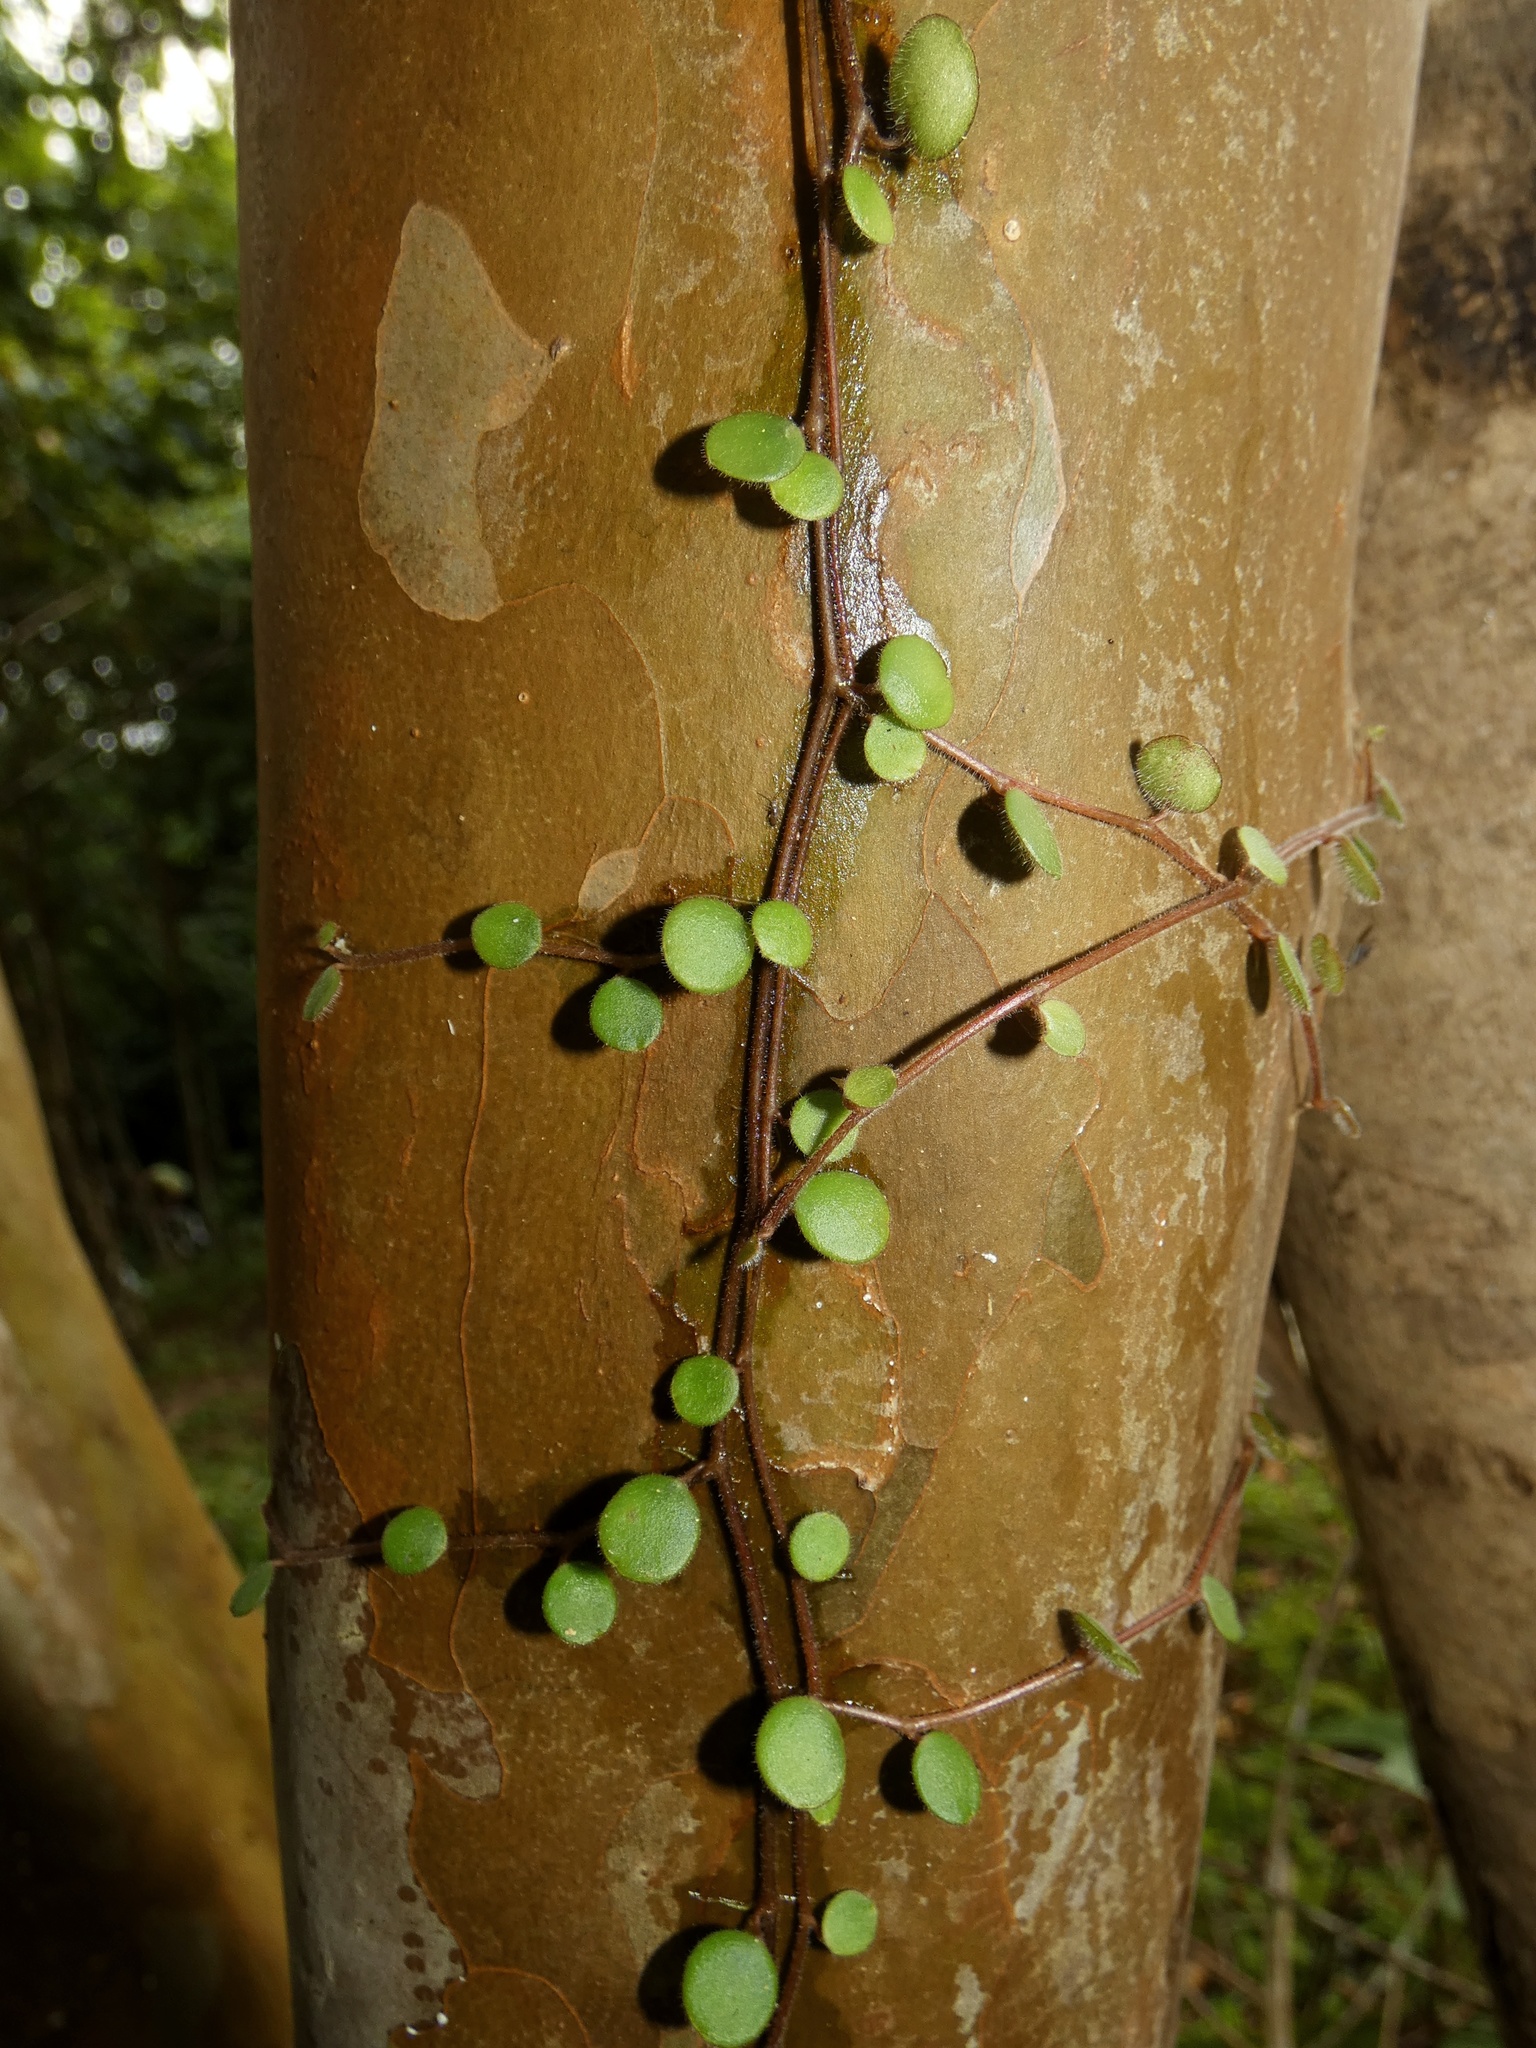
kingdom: Plantae
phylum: Tracheophyta
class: Magnoliopsida
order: Piperales
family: Piperaceae
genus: Peperomia
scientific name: Peperomia rotundifolia
